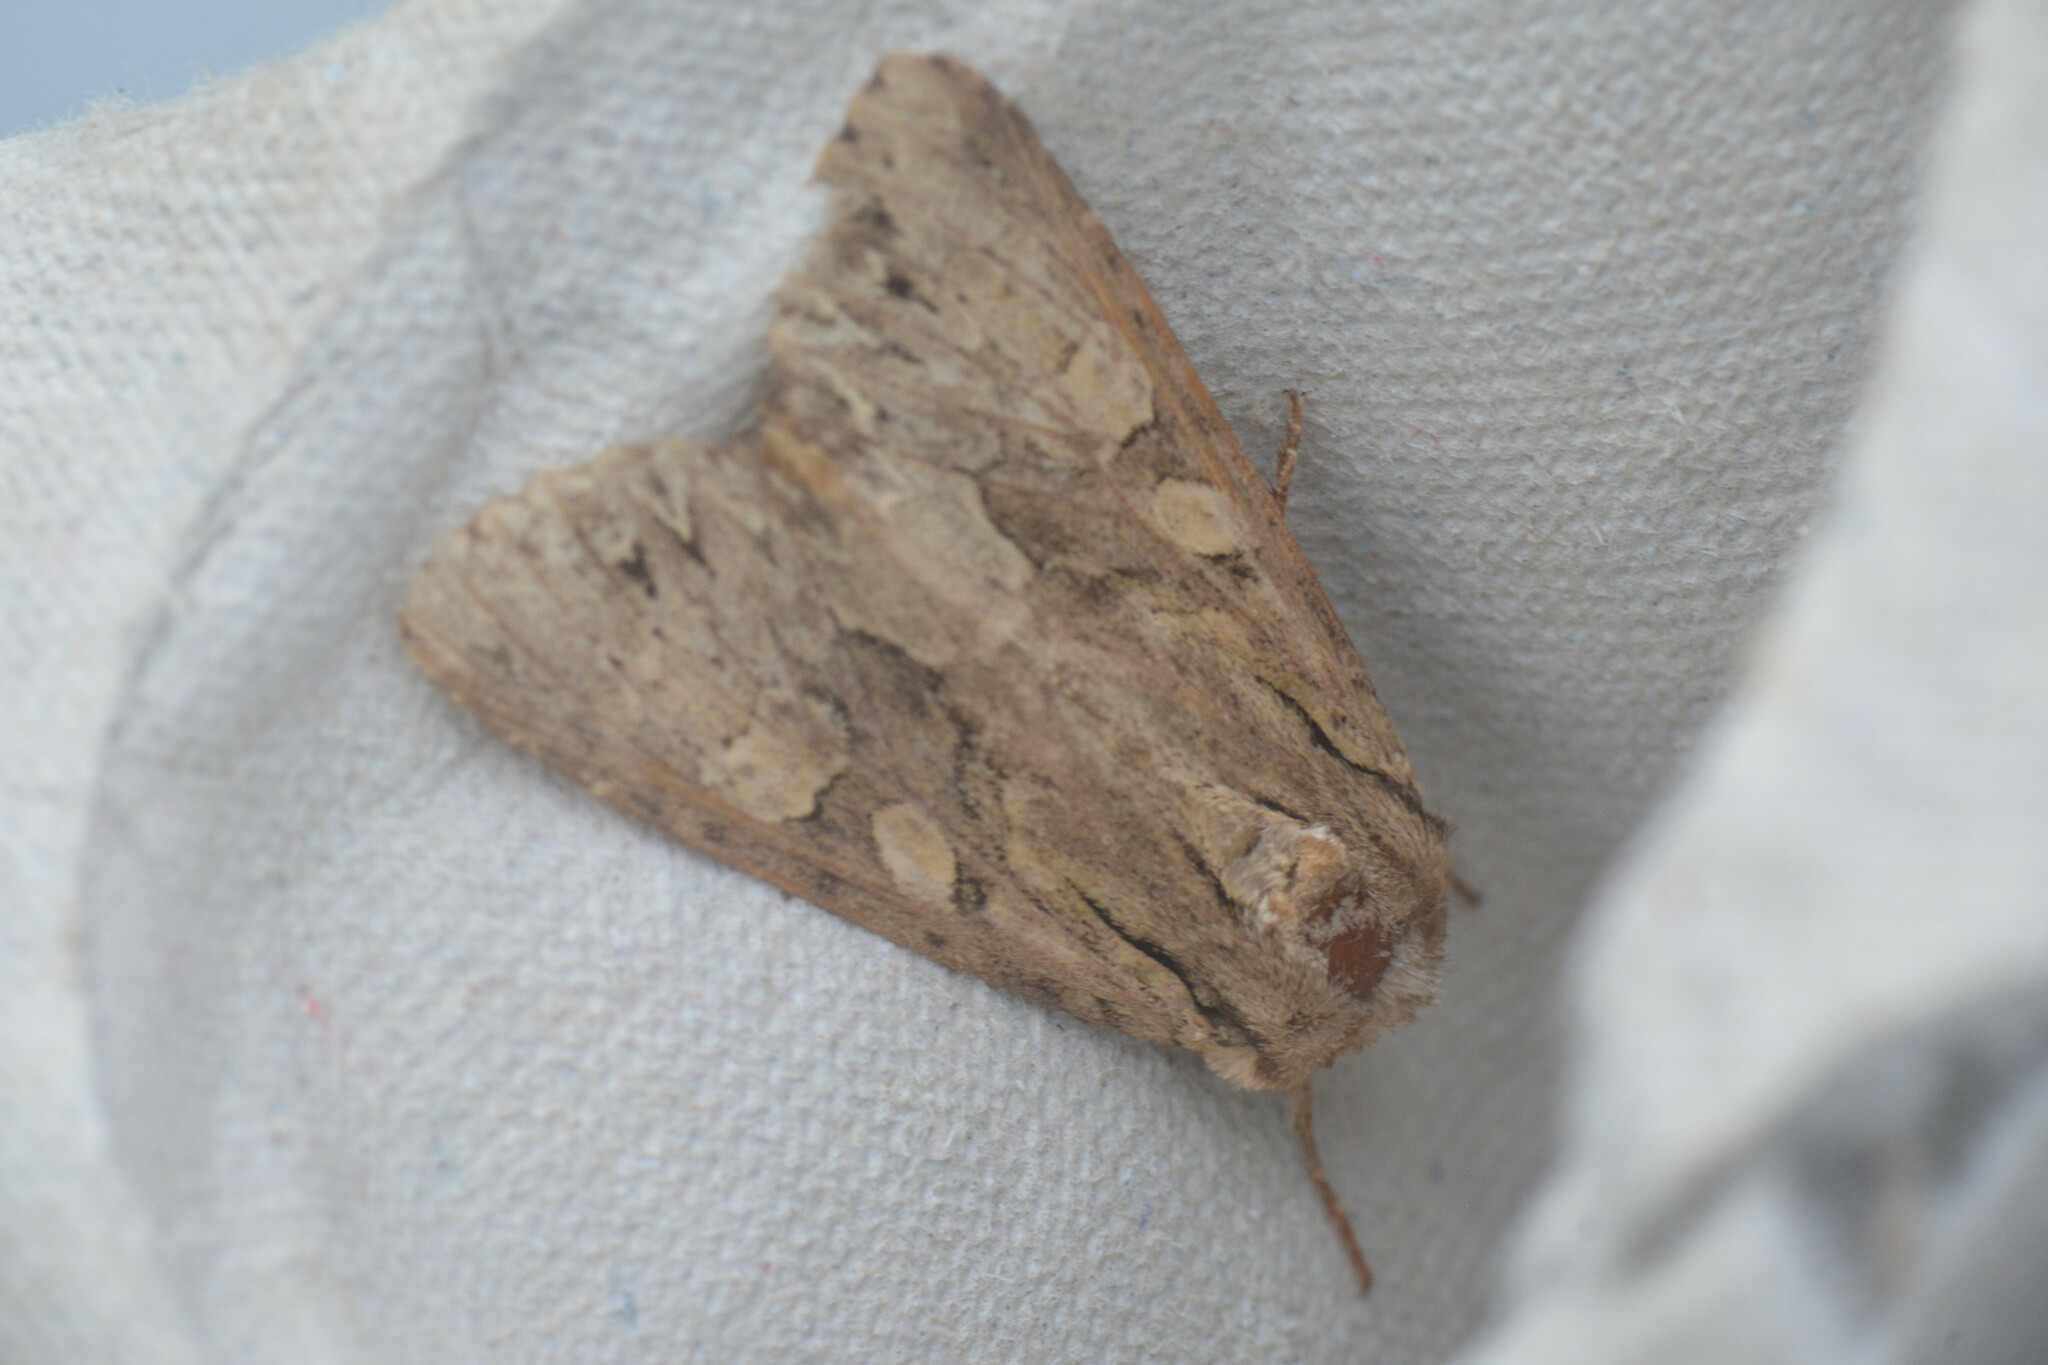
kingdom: Animalia
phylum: Arthropoda
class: Insecta
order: Lepidoptera
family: Noctuidae
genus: Apamea
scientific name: Apamea monoglypha
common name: Dark arches
